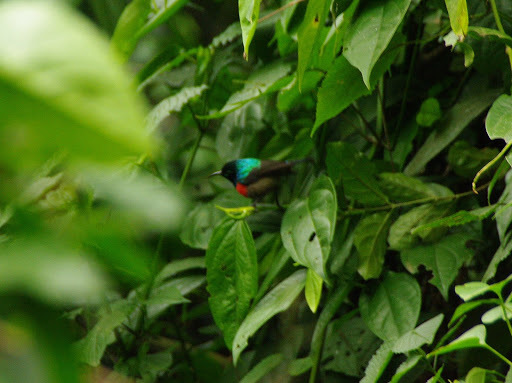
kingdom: Animalia
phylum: Chordata
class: Aves
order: Passeriformes
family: Nectariniidae
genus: Cinnyris
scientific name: Cinnyris reichenowi
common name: Northern double-collared sunbird
